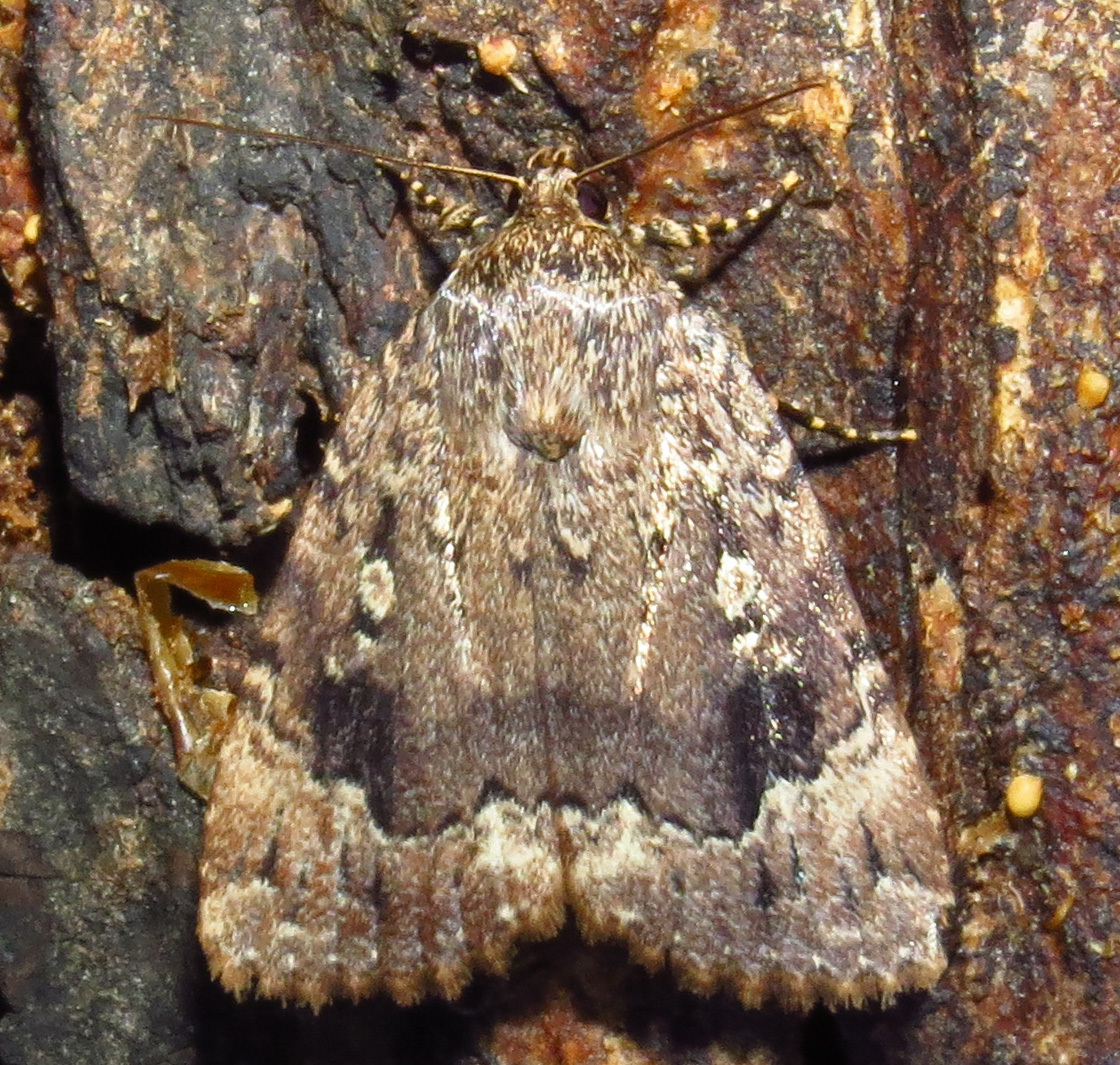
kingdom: Animalia
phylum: Arthropoda
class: Insecta
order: Lepidoptera
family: Noctuidae
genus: Amphipyra
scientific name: Amphipyra pyramidoides
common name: American copper underwing
